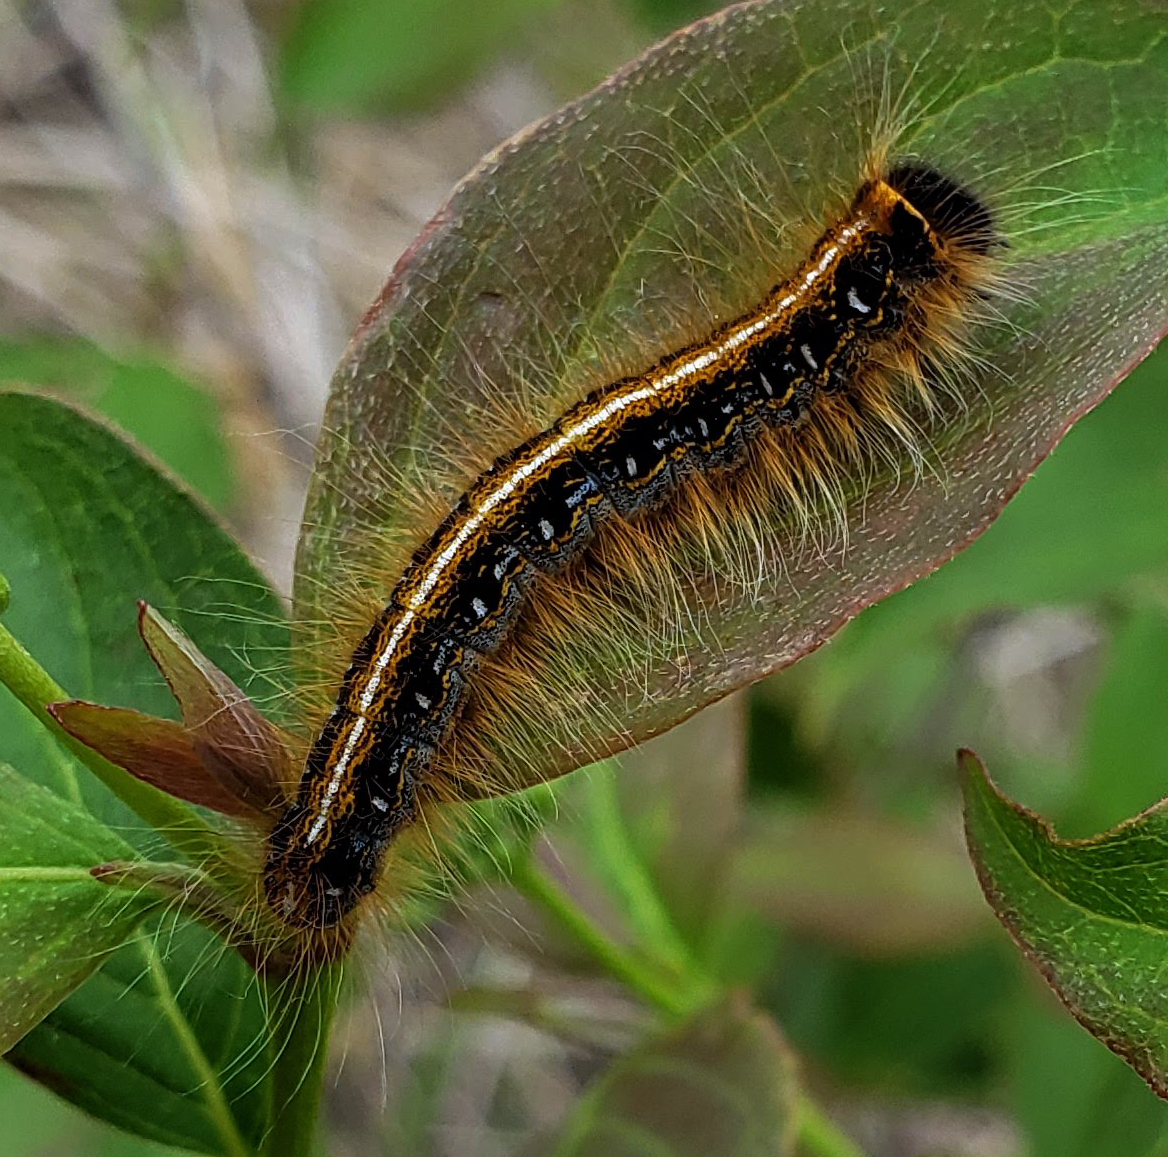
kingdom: Animalia
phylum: Arthropoda
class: Insecta
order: Lepidoptera
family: Lasiocampidae
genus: Malacosoma
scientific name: Malacosoma americana
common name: Eastern tent caterpillar moth
